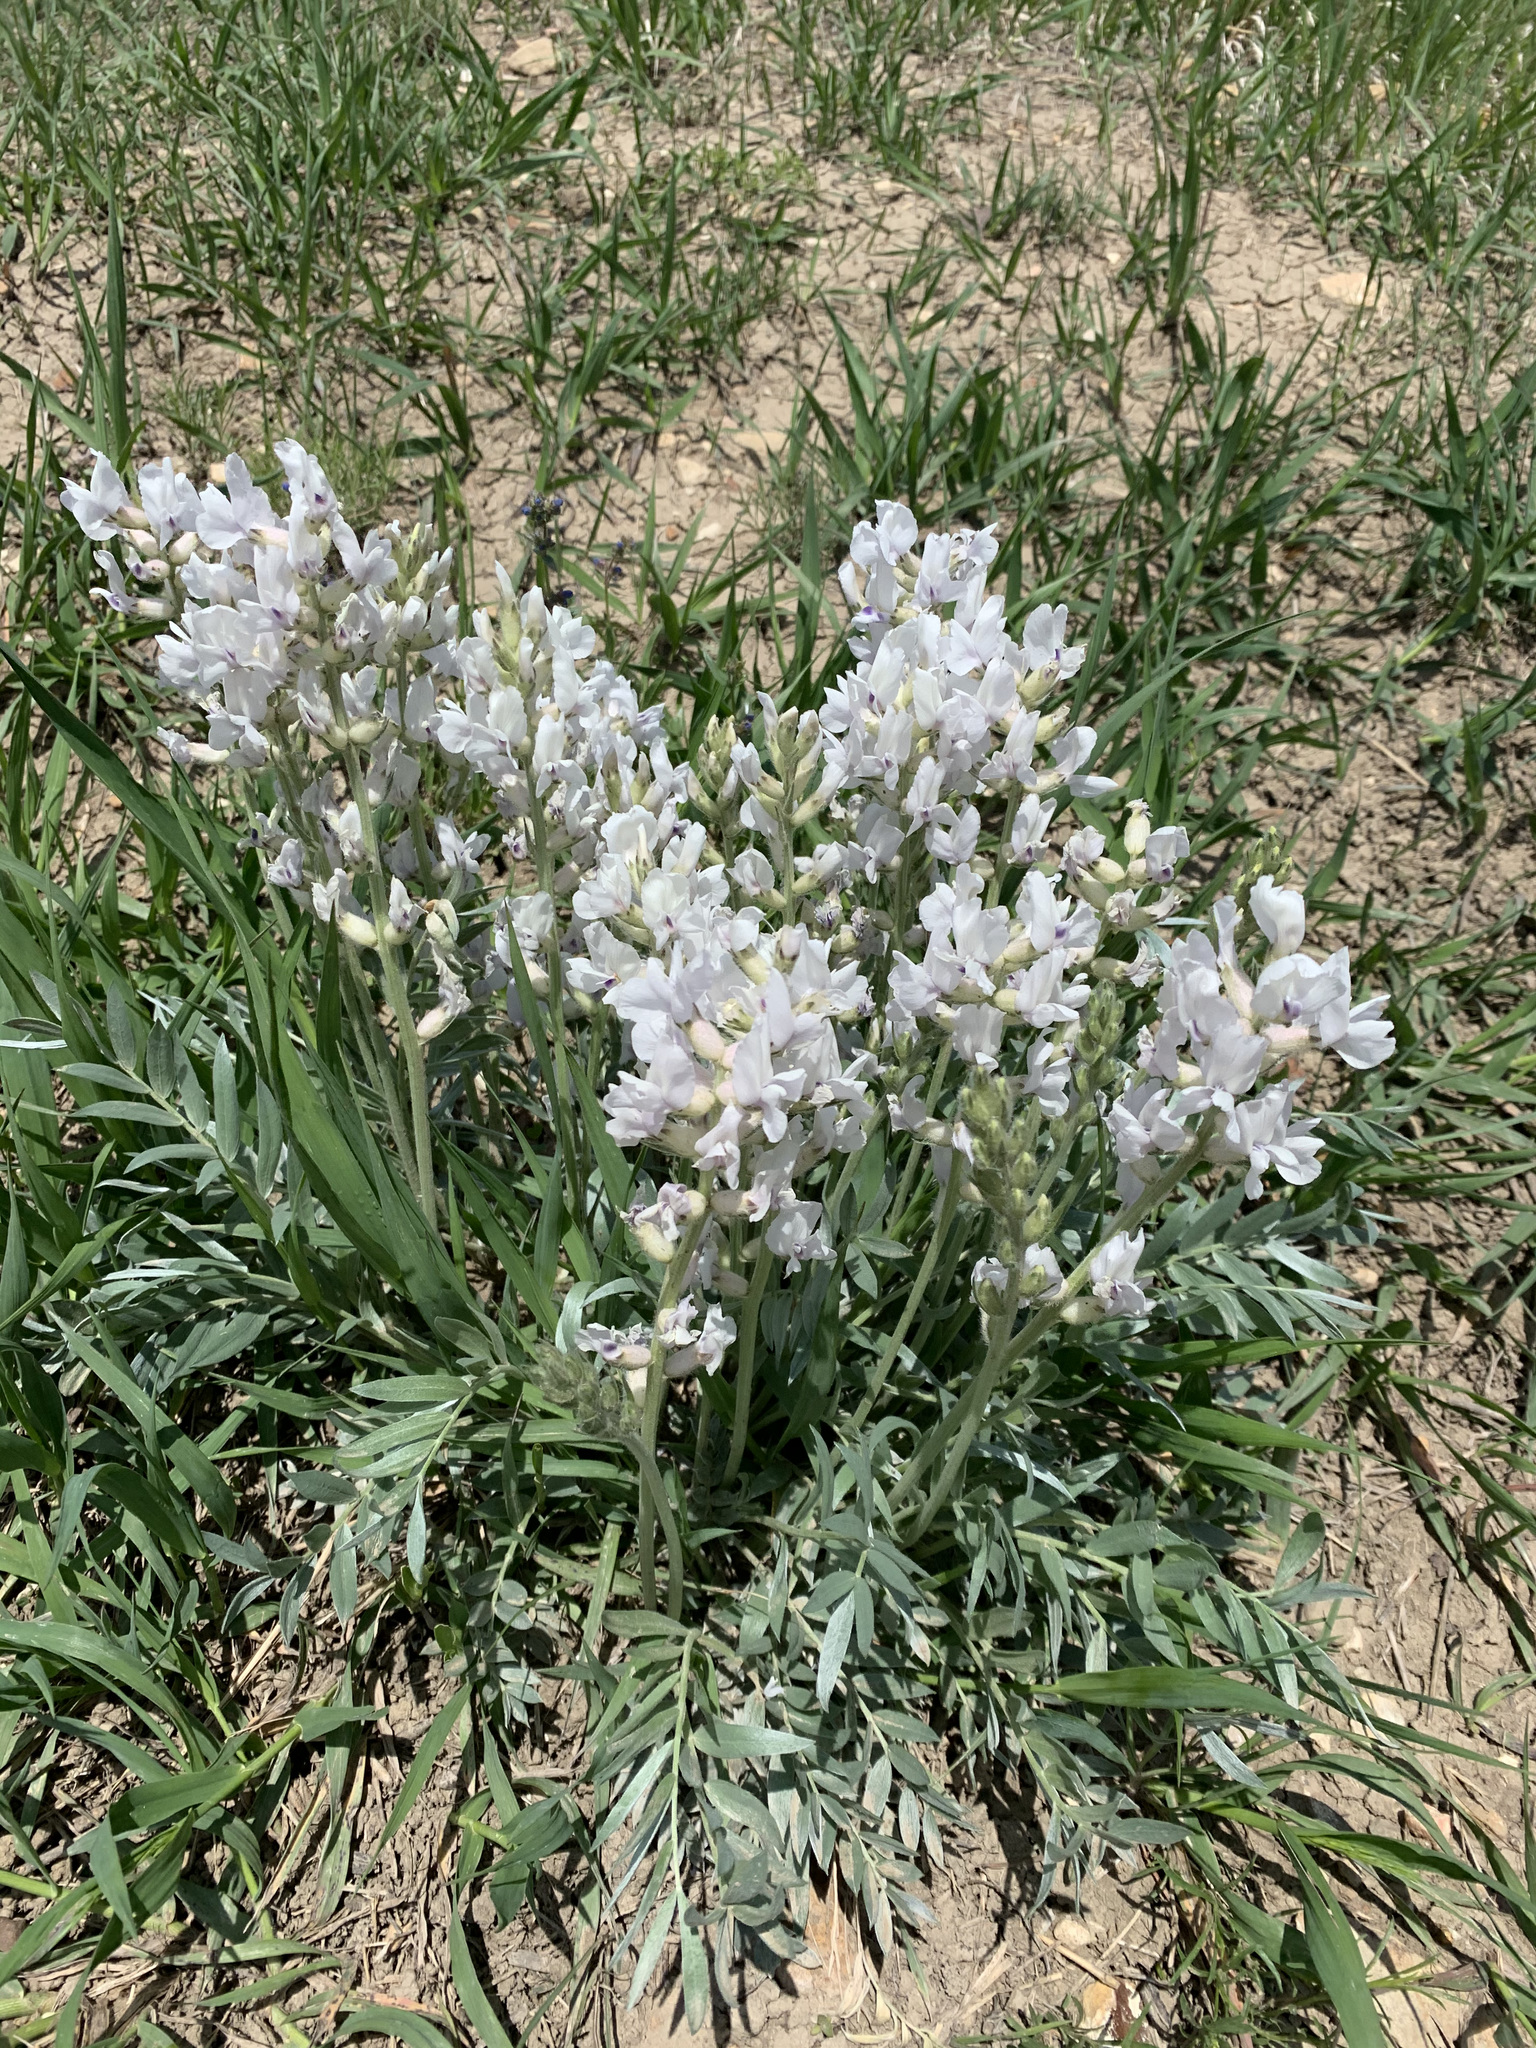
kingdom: Plantae
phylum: Tracheophyta
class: Magnoliopsida
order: Fabales
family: Fabaceae
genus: Oxytropis
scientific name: Oxytropis sericea
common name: Silky locoweed
